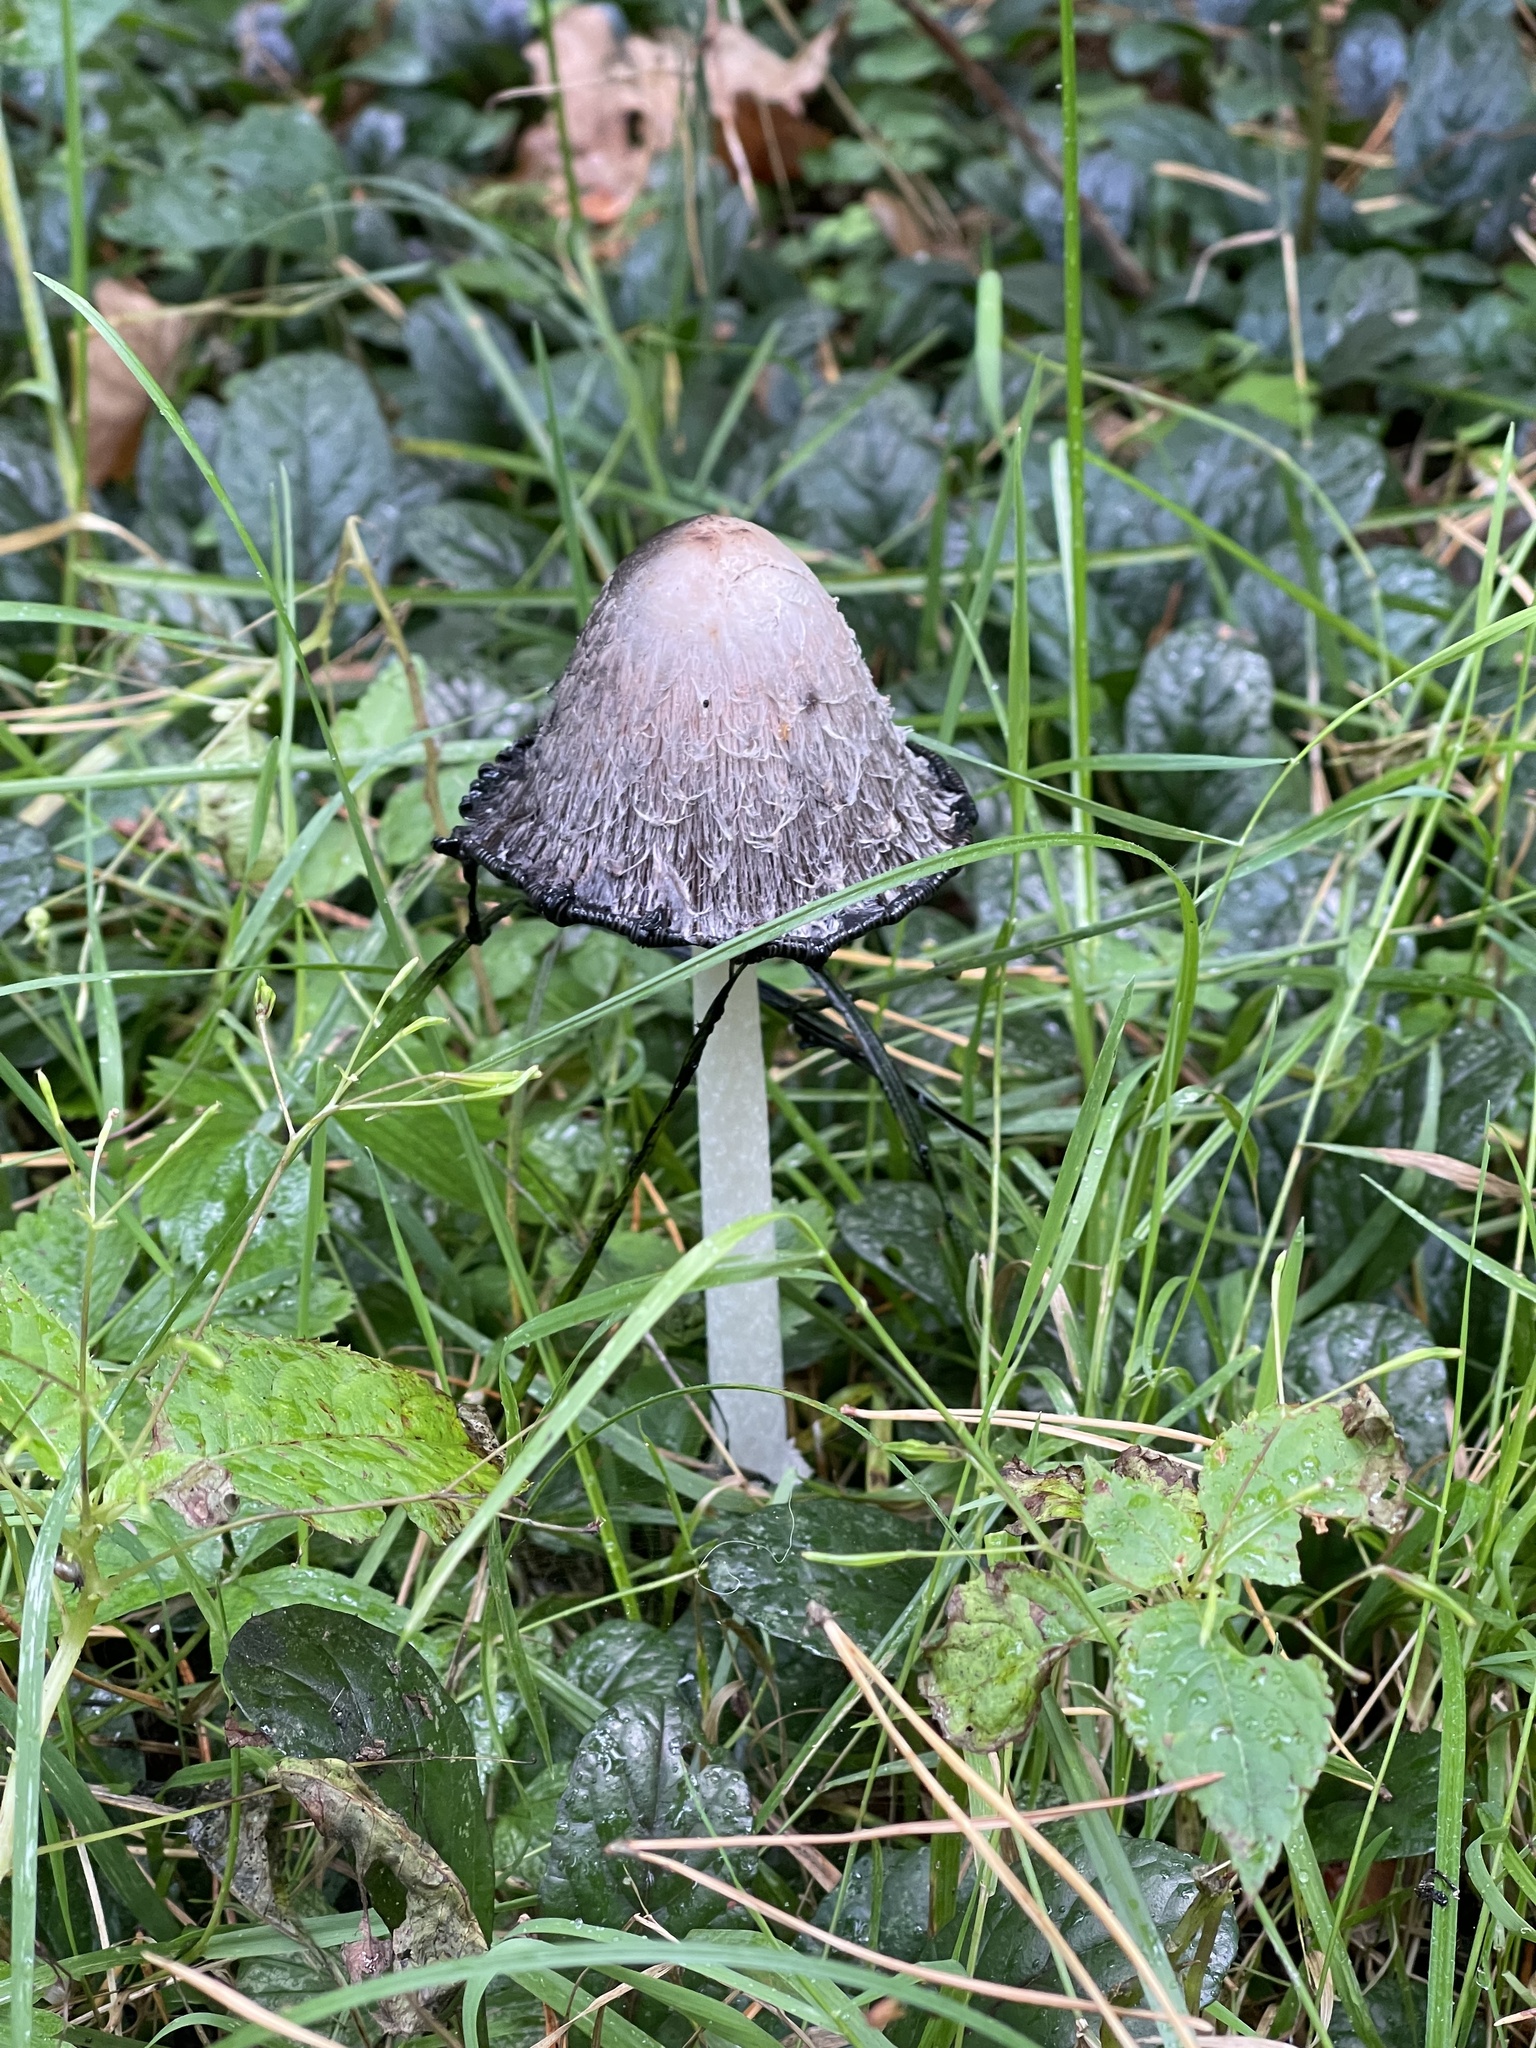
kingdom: Fungi
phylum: Basidiomycota
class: Agaricomycetes
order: Agaricales
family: Agaricaceae
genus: Coprinus
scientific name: Coprinus comatus
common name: Lawyer's wig
